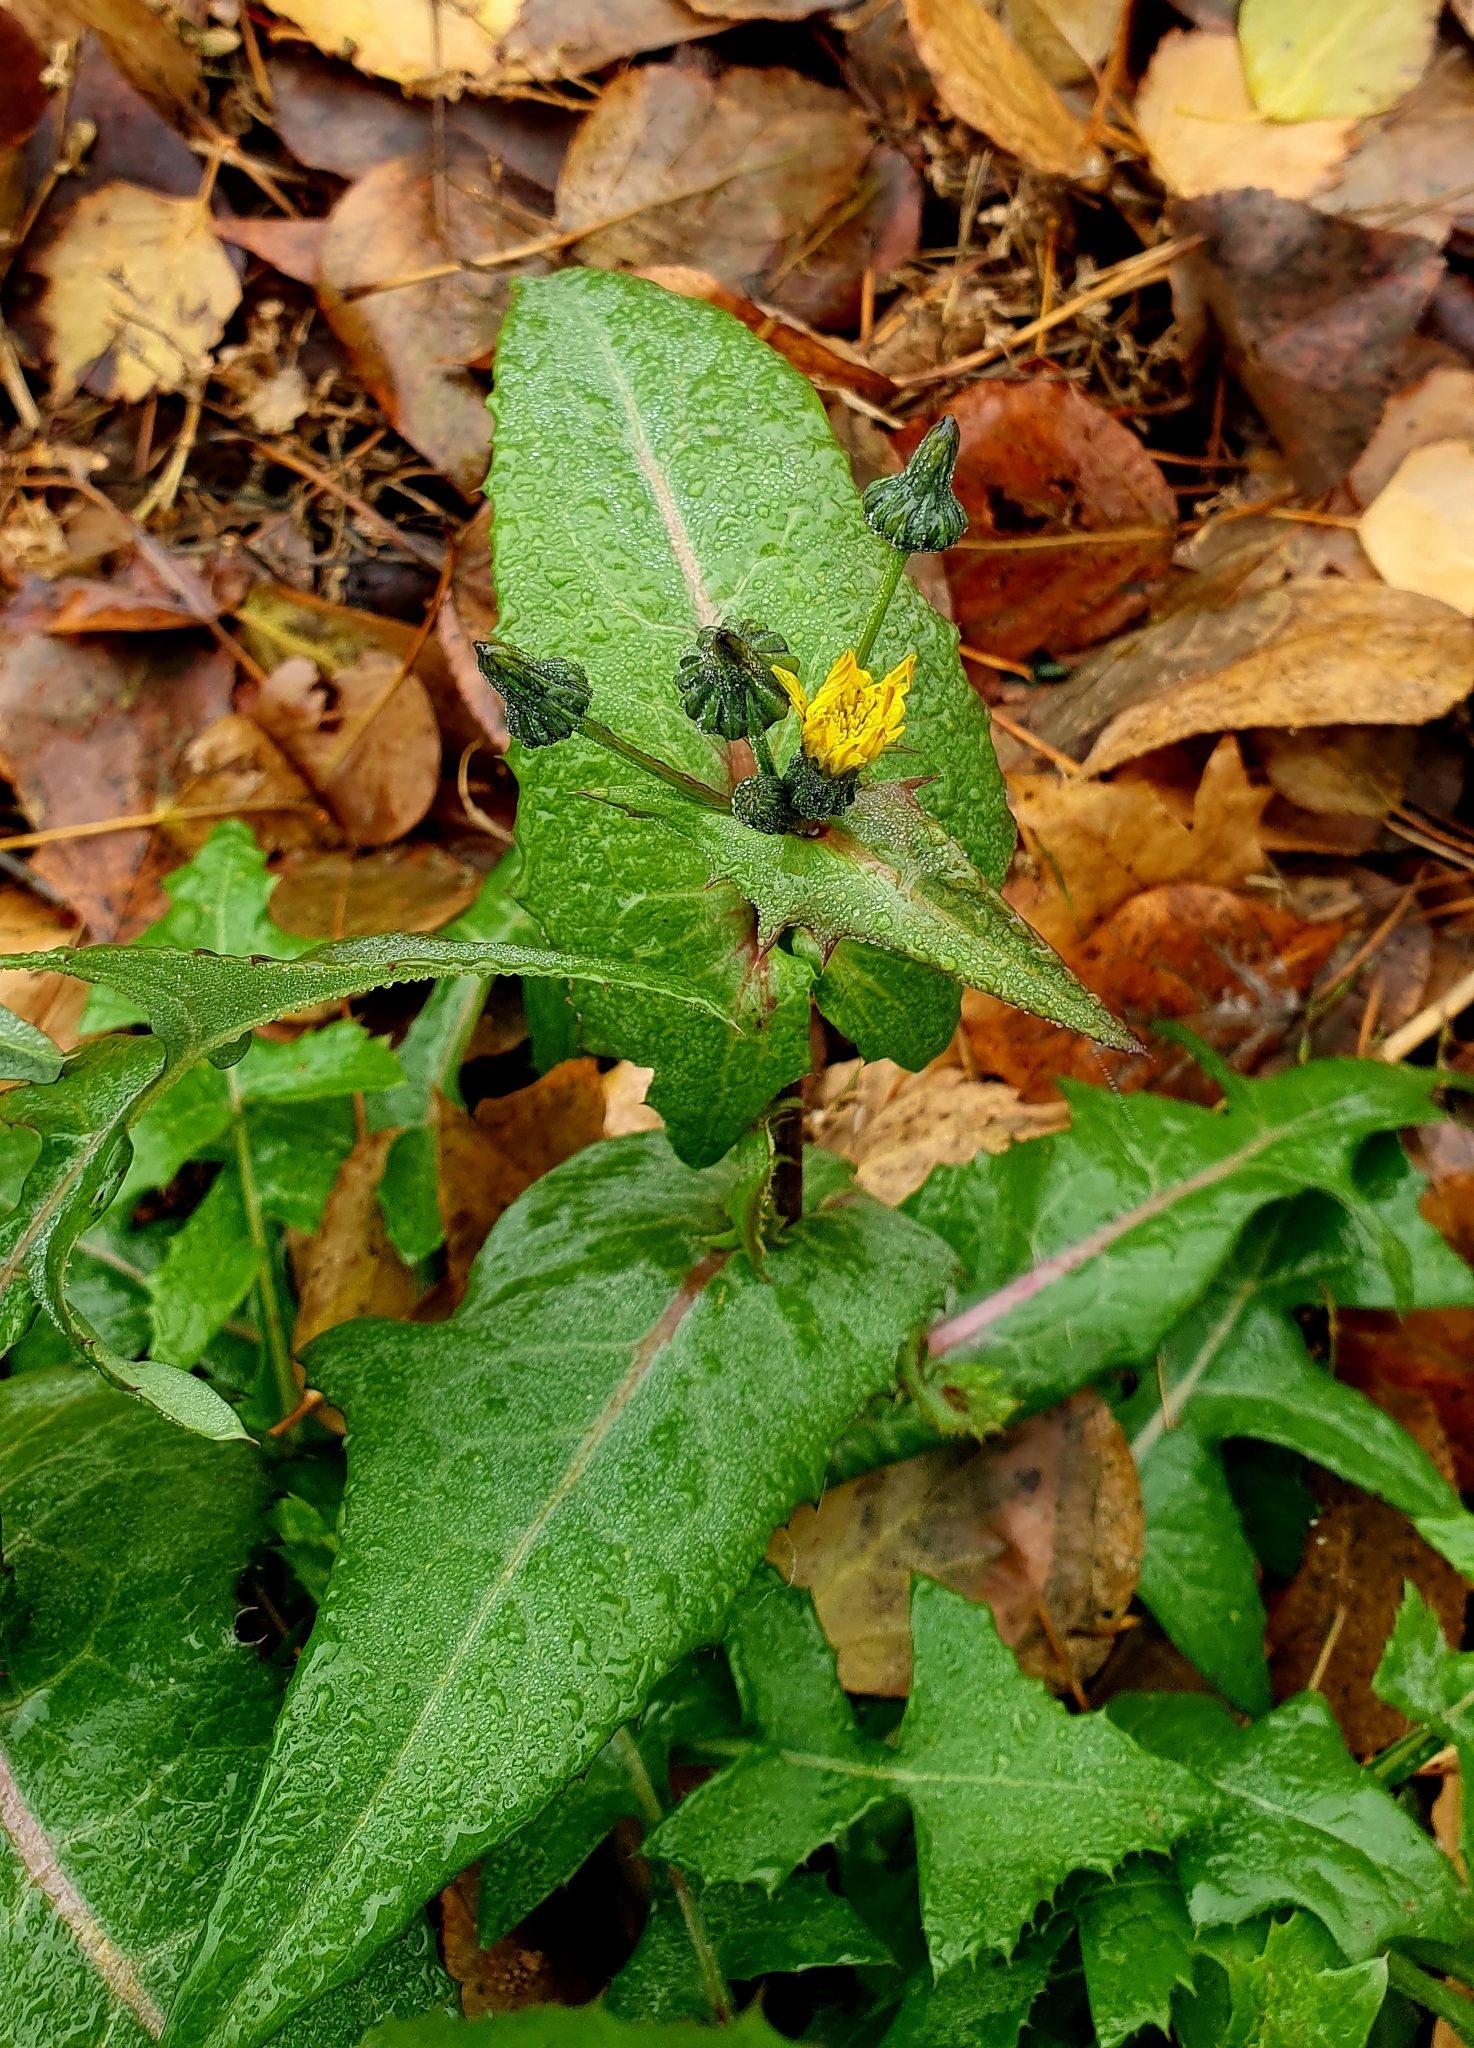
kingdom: Plantae
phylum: Tracheophyta
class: Magnoliopsida
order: Asterales
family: Asteraceae
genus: Sonchus
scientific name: Sonchus oleraceus
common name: Common sowthistle
